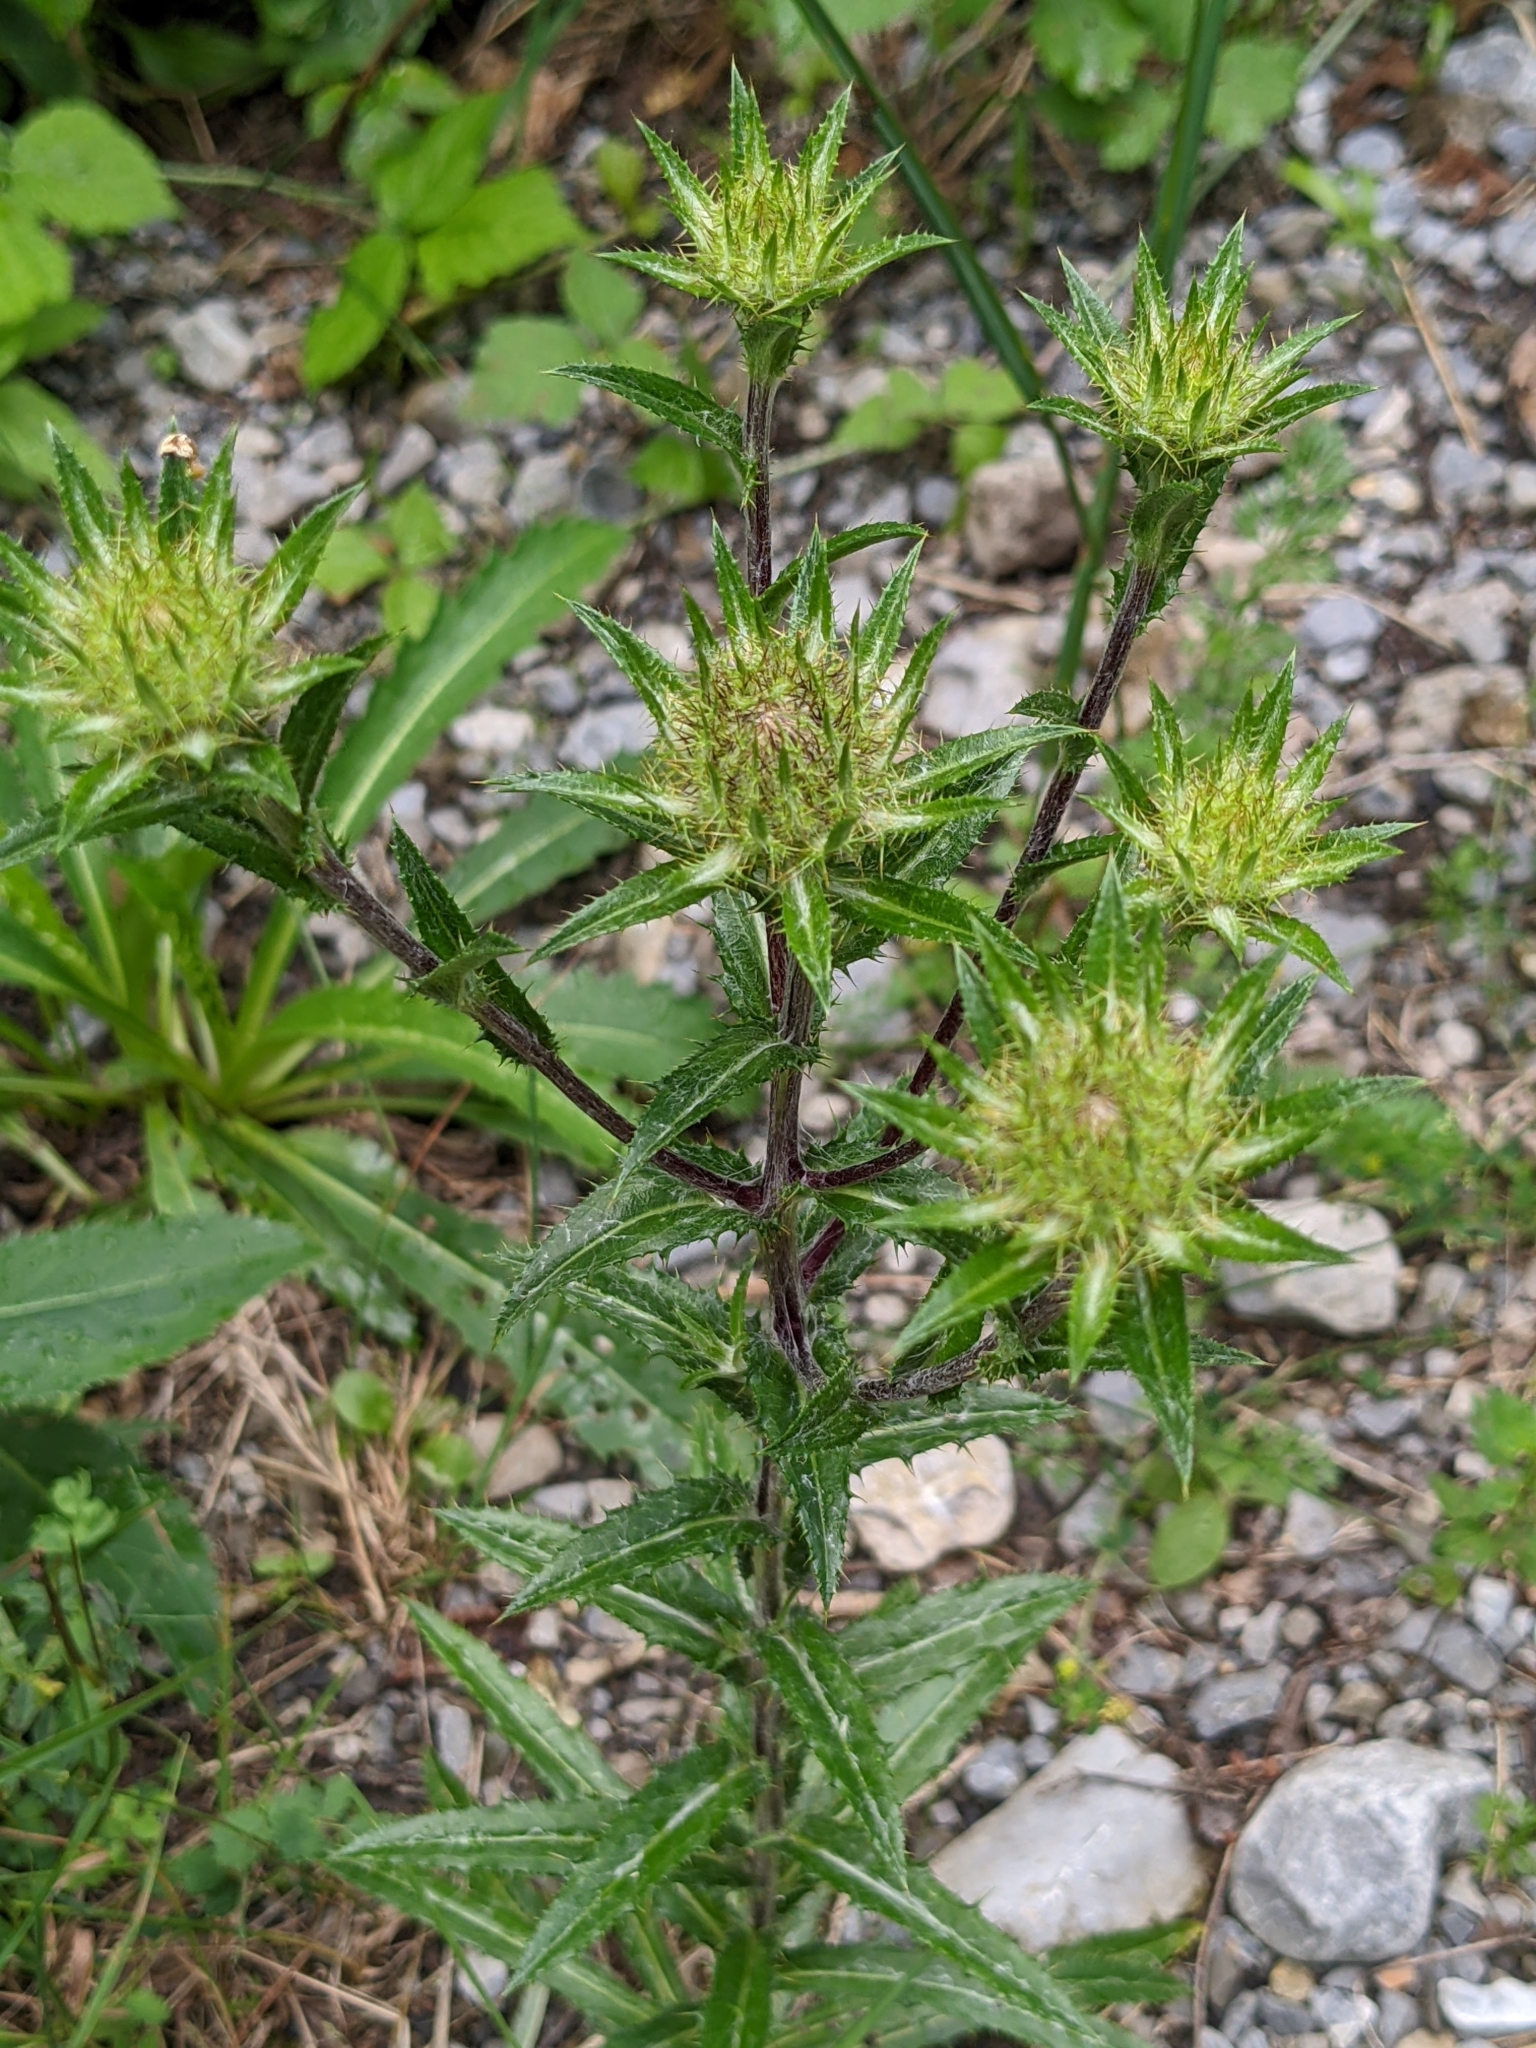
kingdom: Plantae
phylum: Tracheophyta
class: Magnoliopsida
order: Asterales
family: Asteraceae
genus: Carlina
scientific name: Carlina vulgaris
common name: Carline thistle
